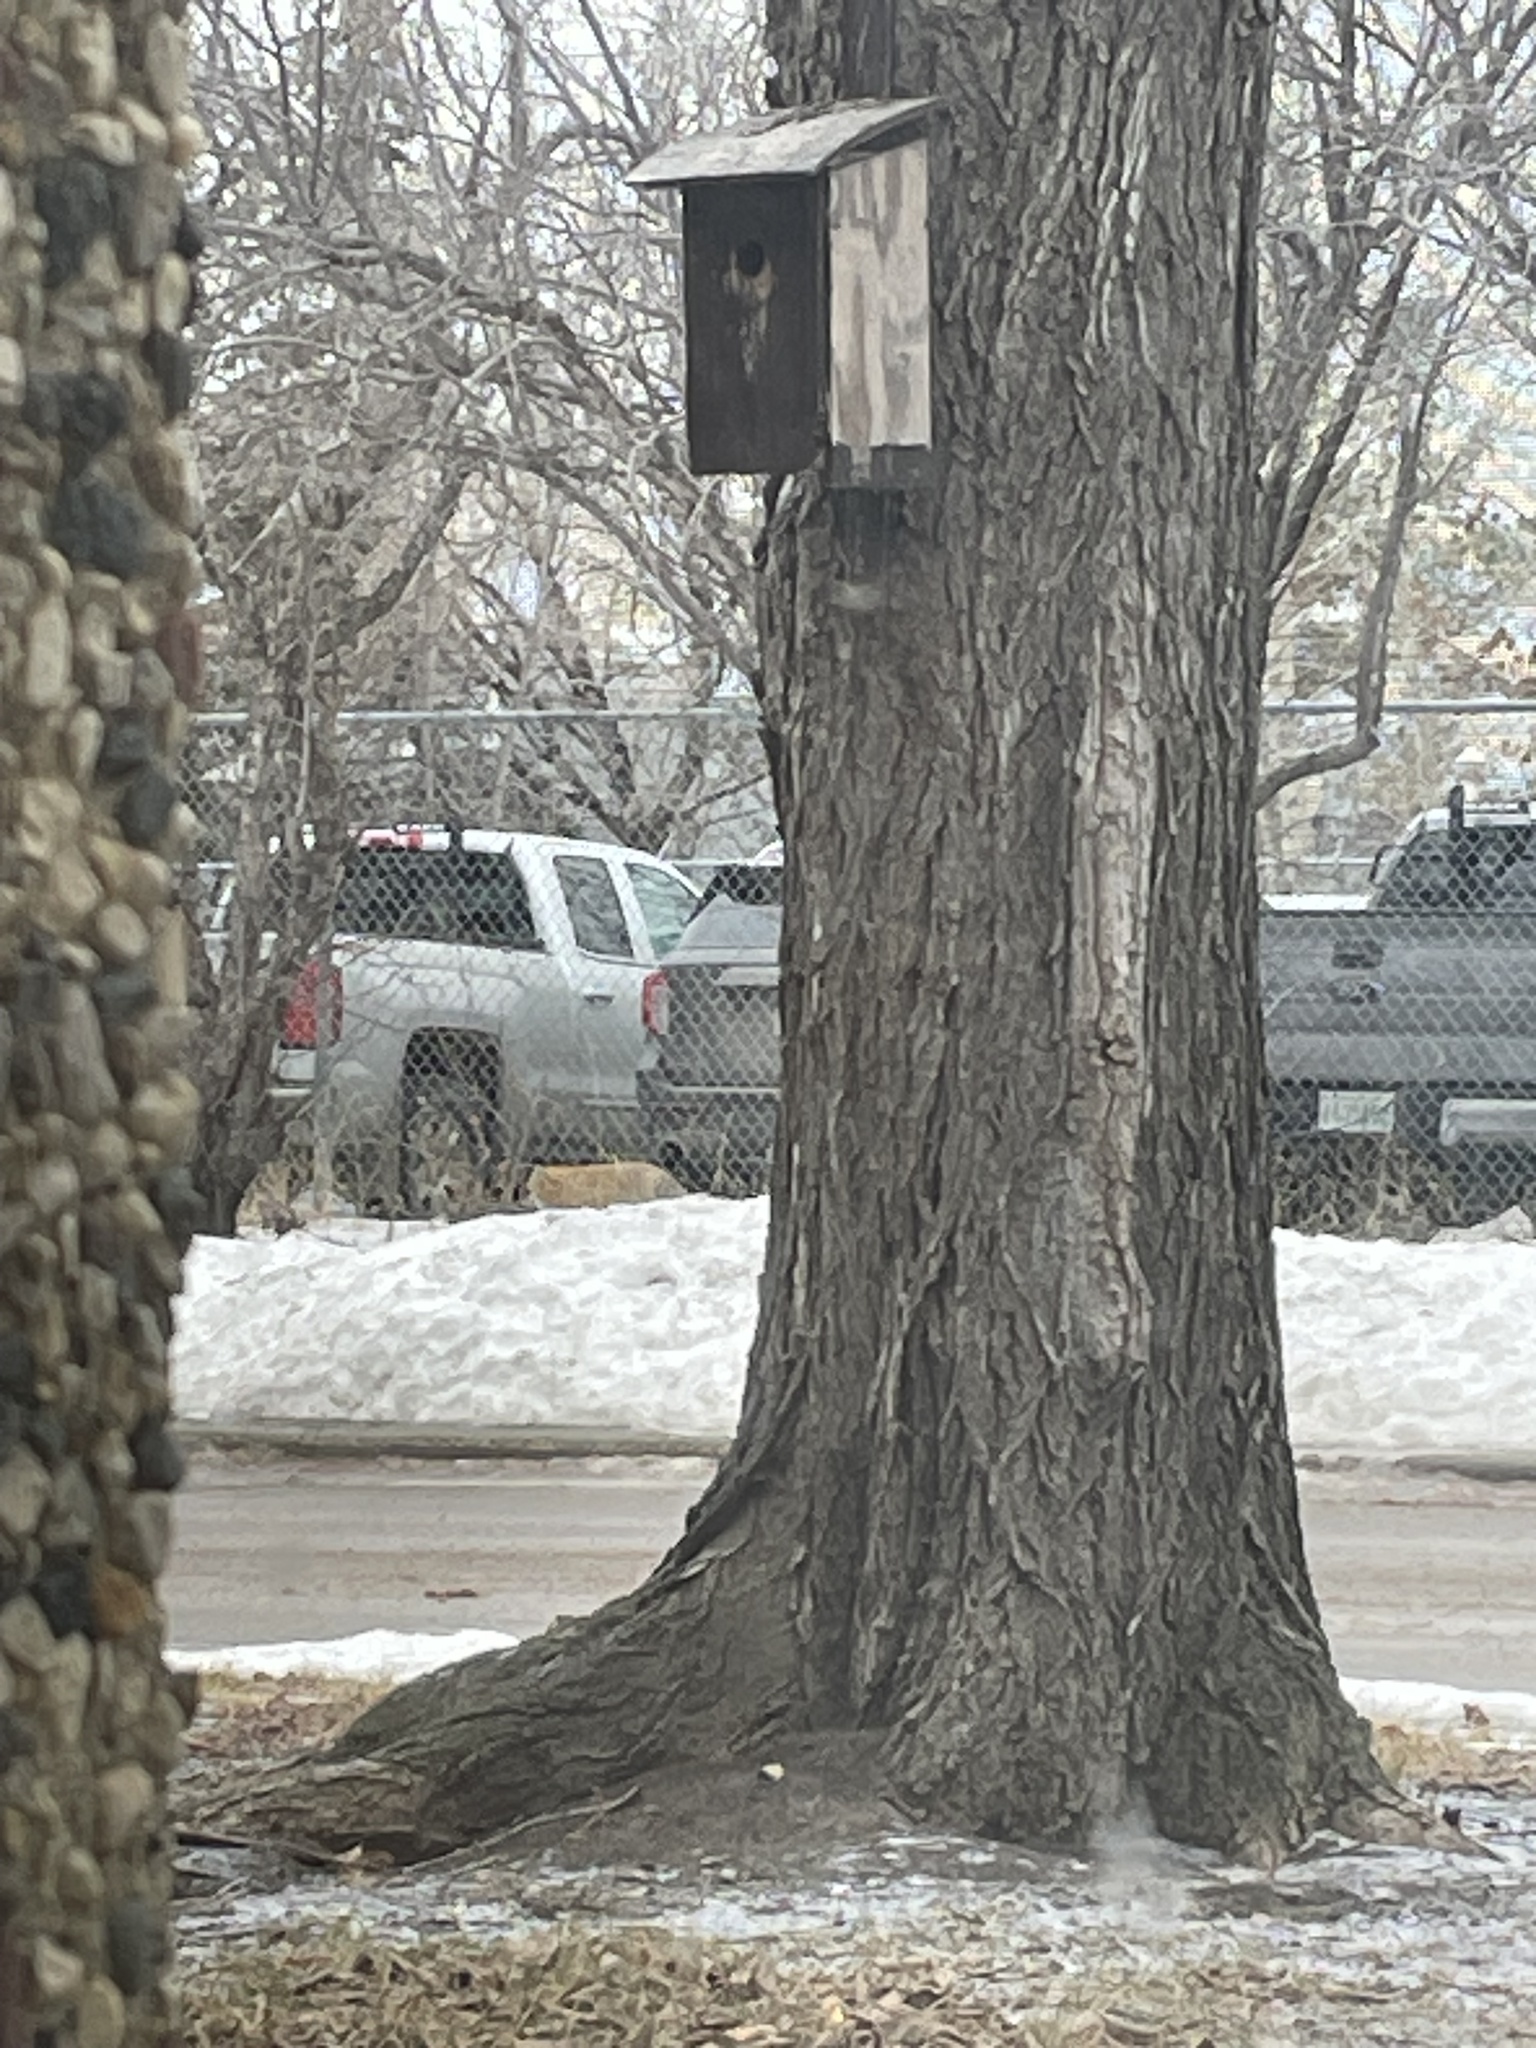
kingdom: Animalia
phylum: Chordata
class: Mammalia
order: Carnivora
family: Canidae
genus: Vulpes
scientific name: Vulpes vulpes
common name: Red fox
